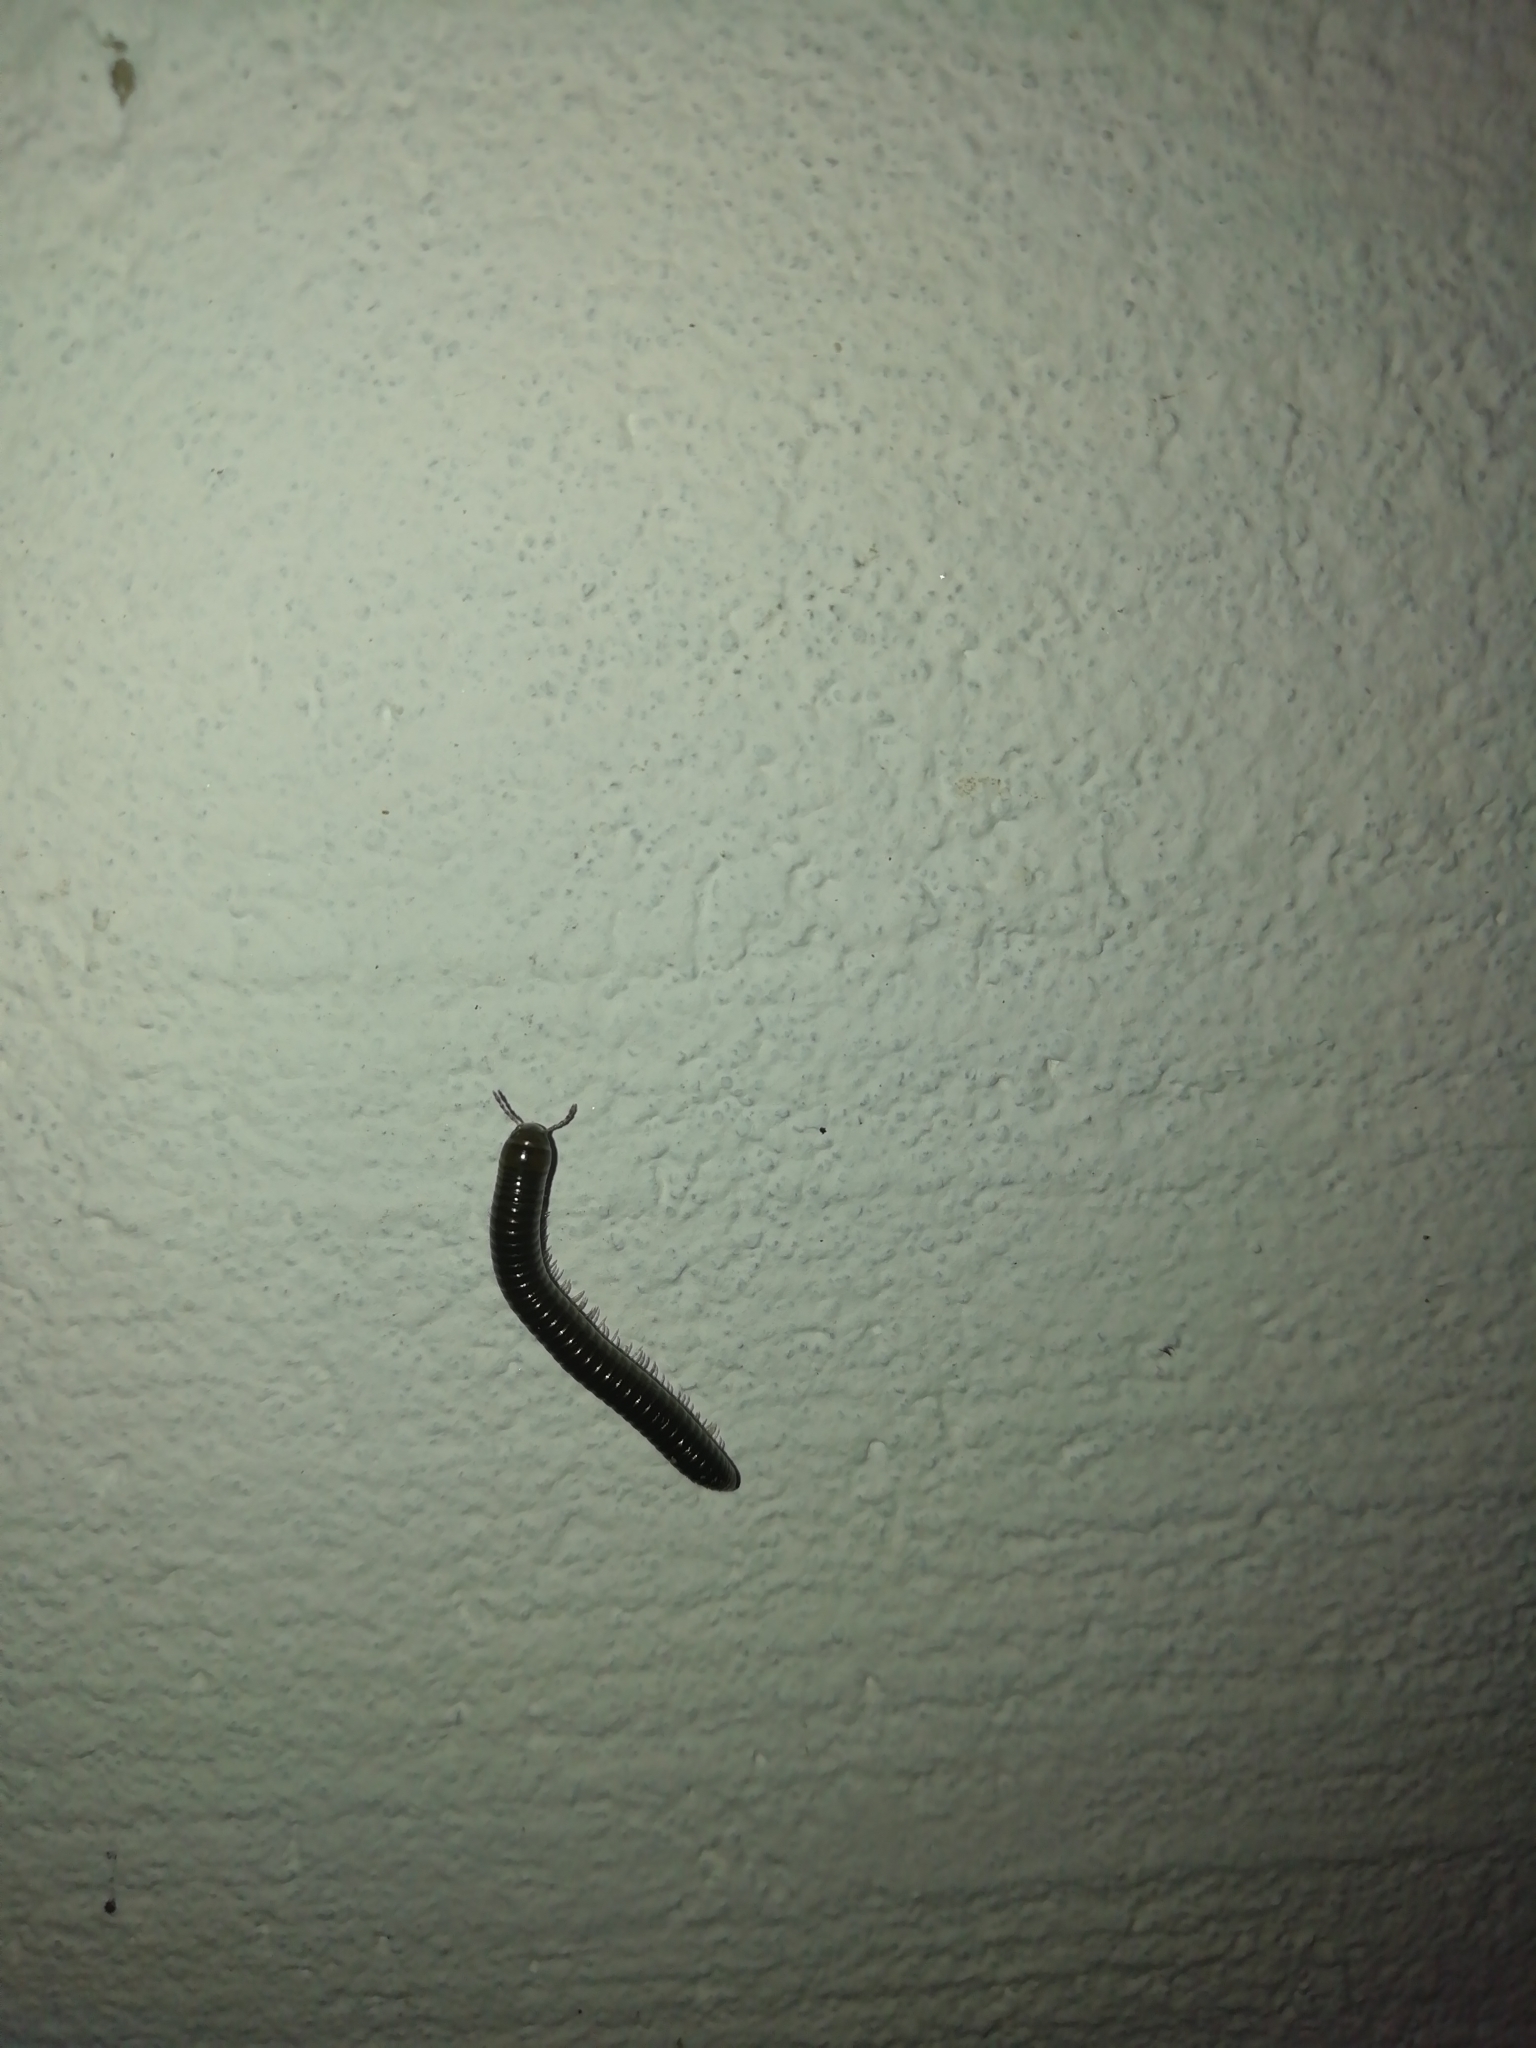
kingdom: Animalia
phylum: Arthropoda
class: Diplopoda
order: Julida
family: Julidae
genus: Cylindroiulus
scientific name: Cylindroiulus caeruleocinctus
